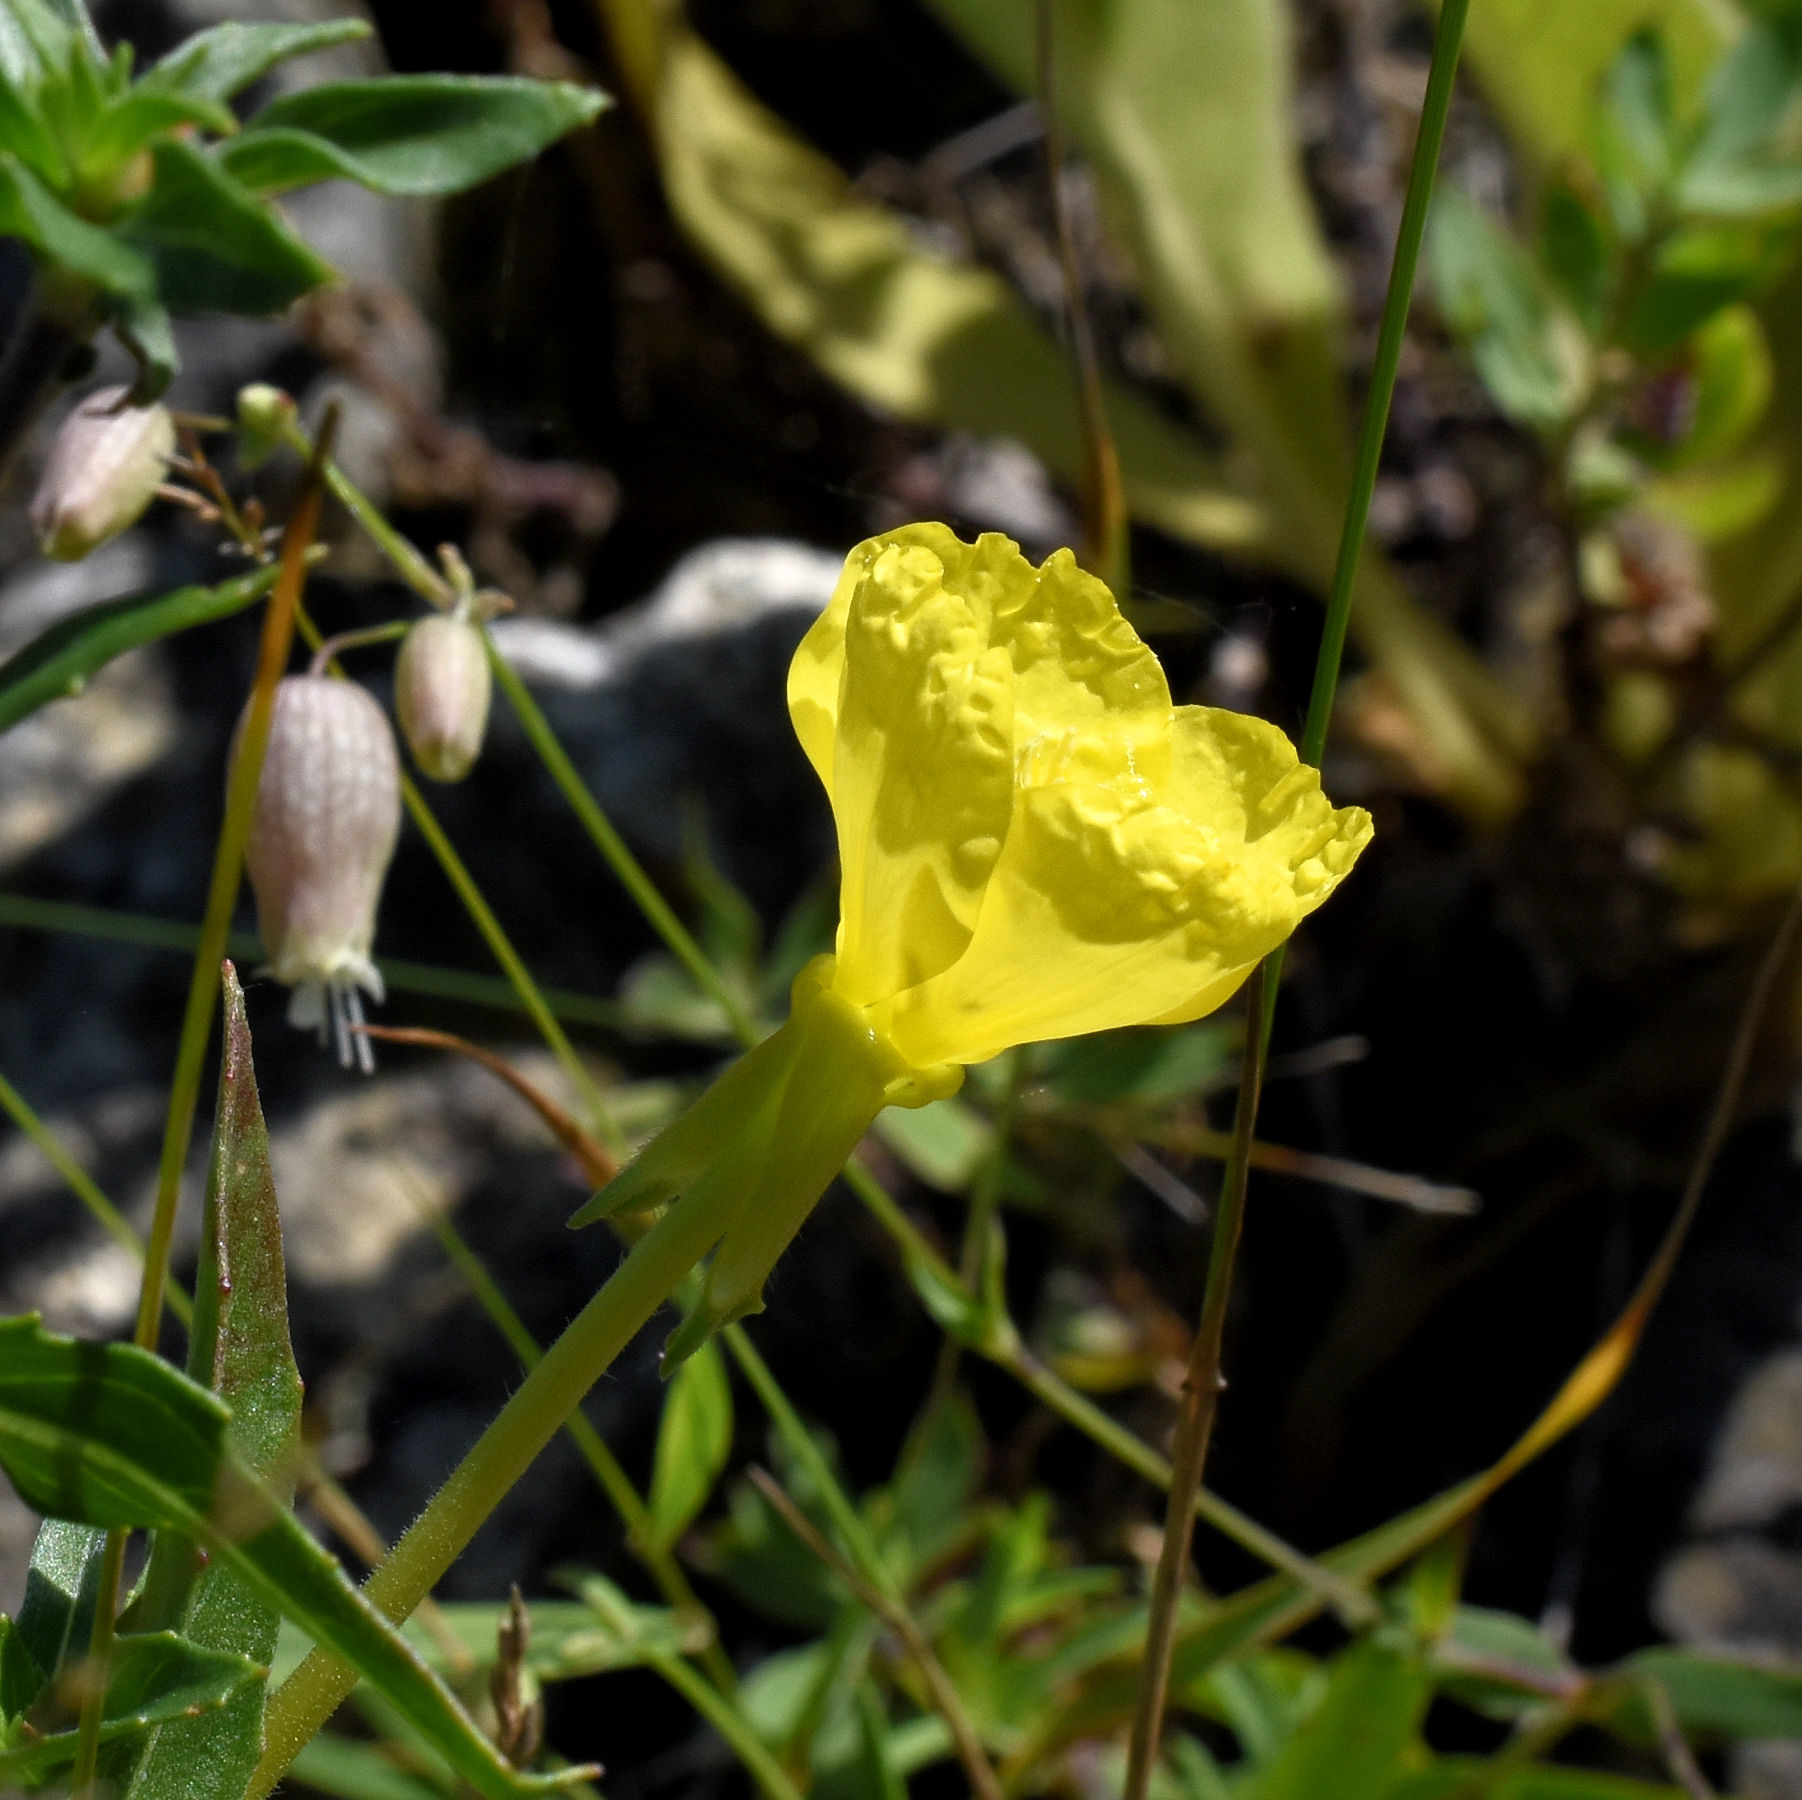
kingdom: Plantae
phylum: Tracheophyta
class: Magnoliopsida
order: Myrtales
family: Onagraceae
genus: Oenothera
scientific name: Oenothera parviflora
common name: Least evening-primrose
